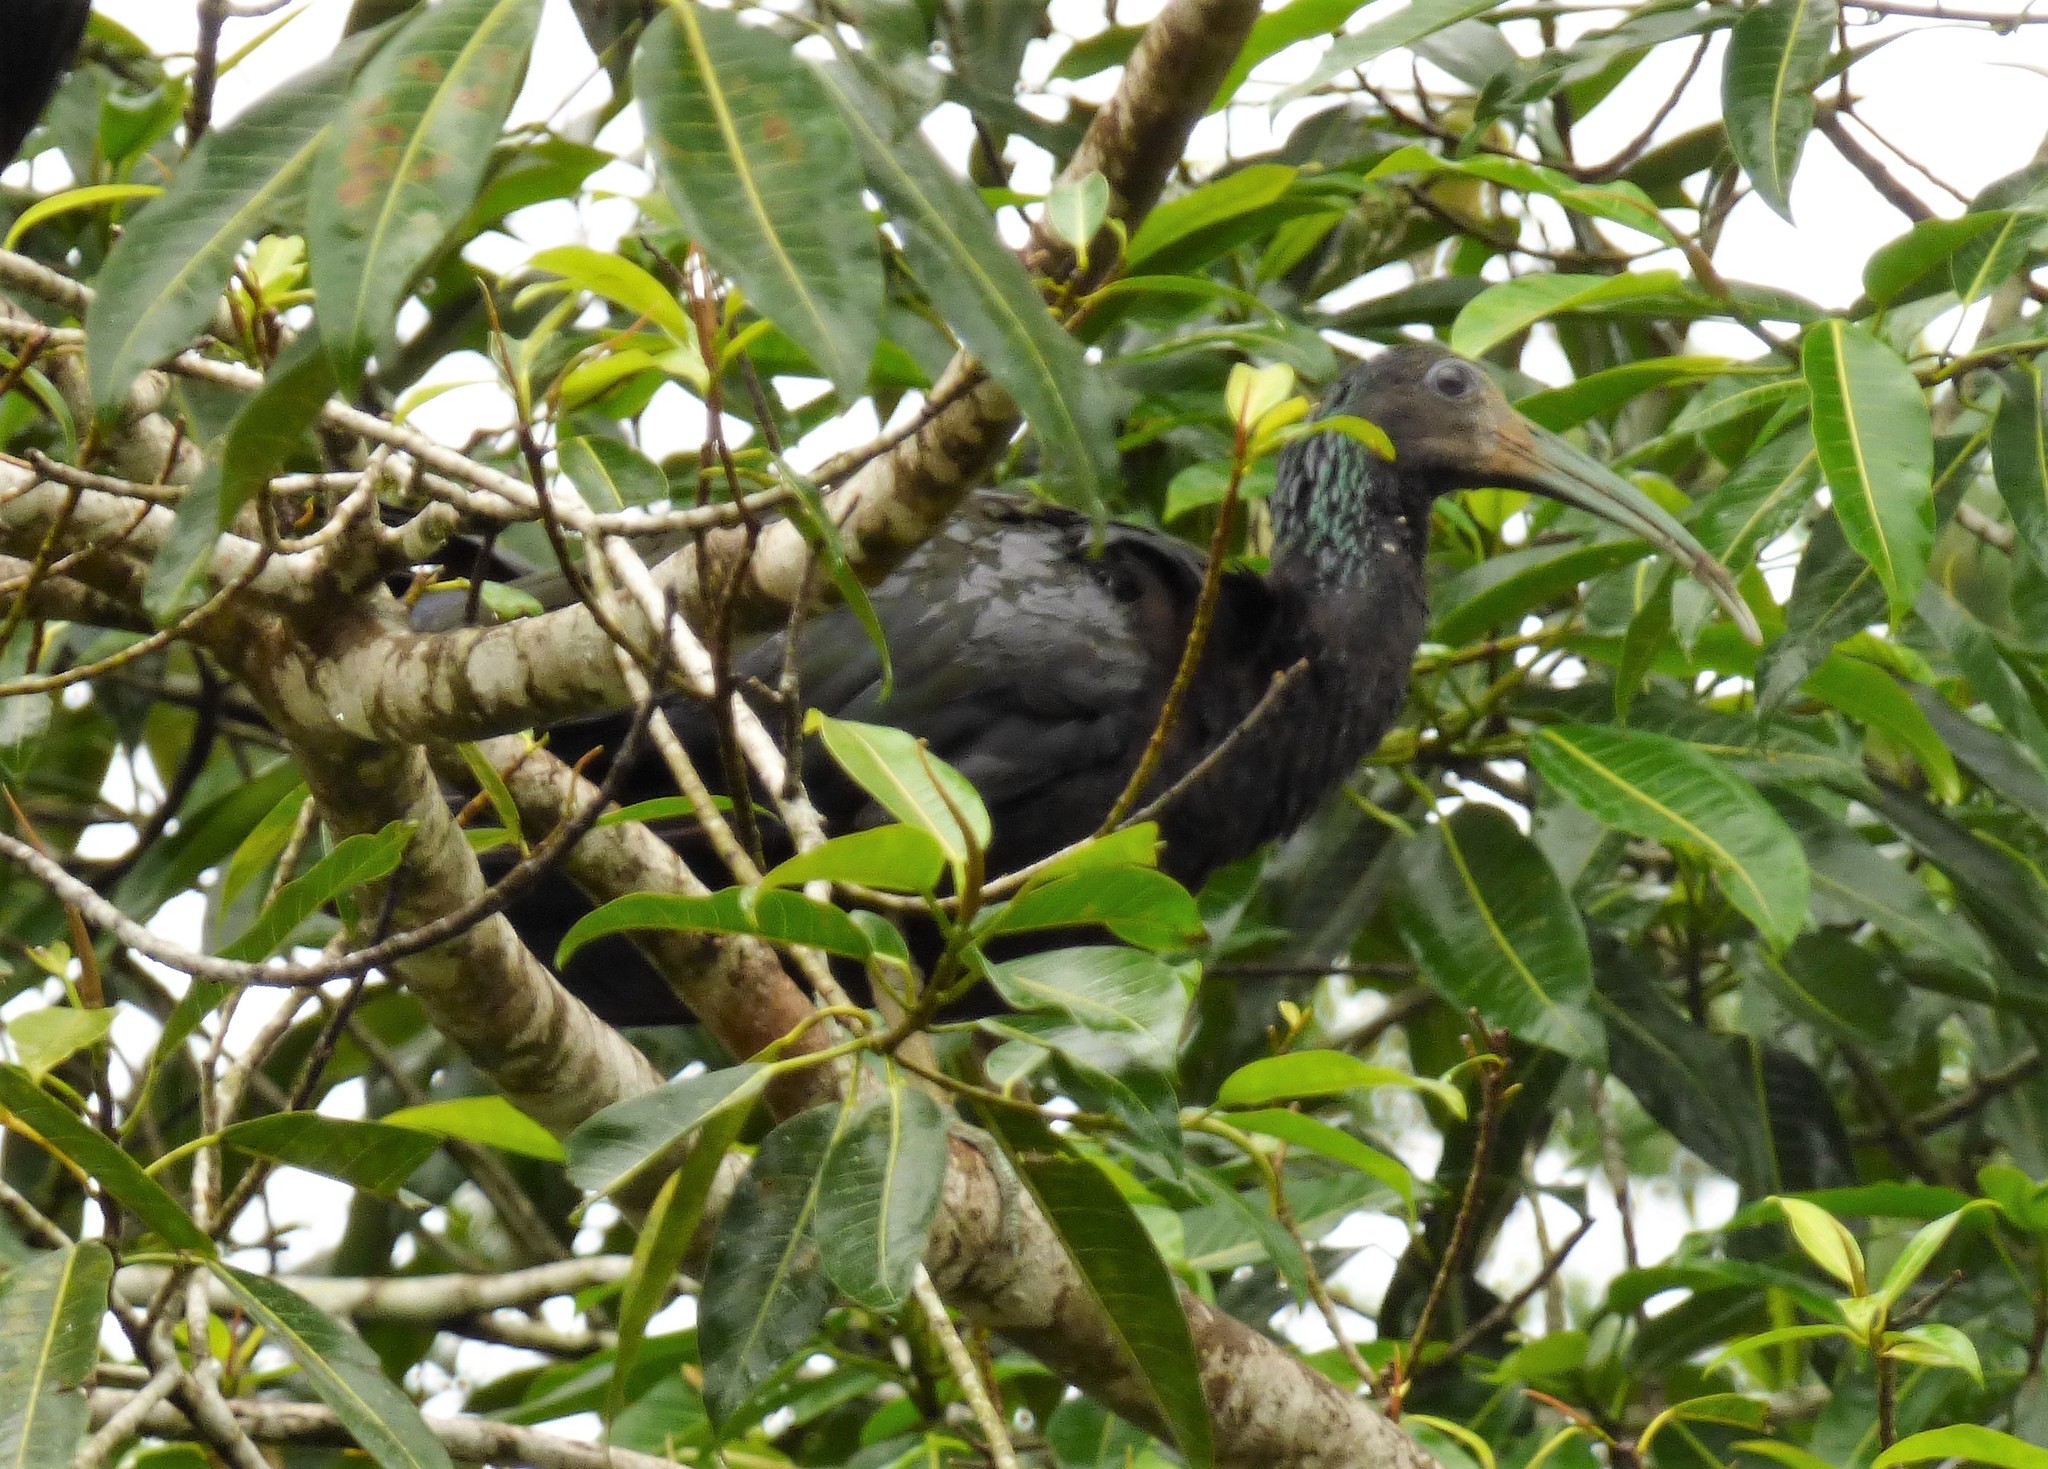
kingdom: Animalia
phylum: Chordata
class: Aves
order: Pelecaniformes
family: Threskiornithidae
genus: Mesembrinibis
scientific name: Mesembrinibis cayennensis
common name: Green ibis
